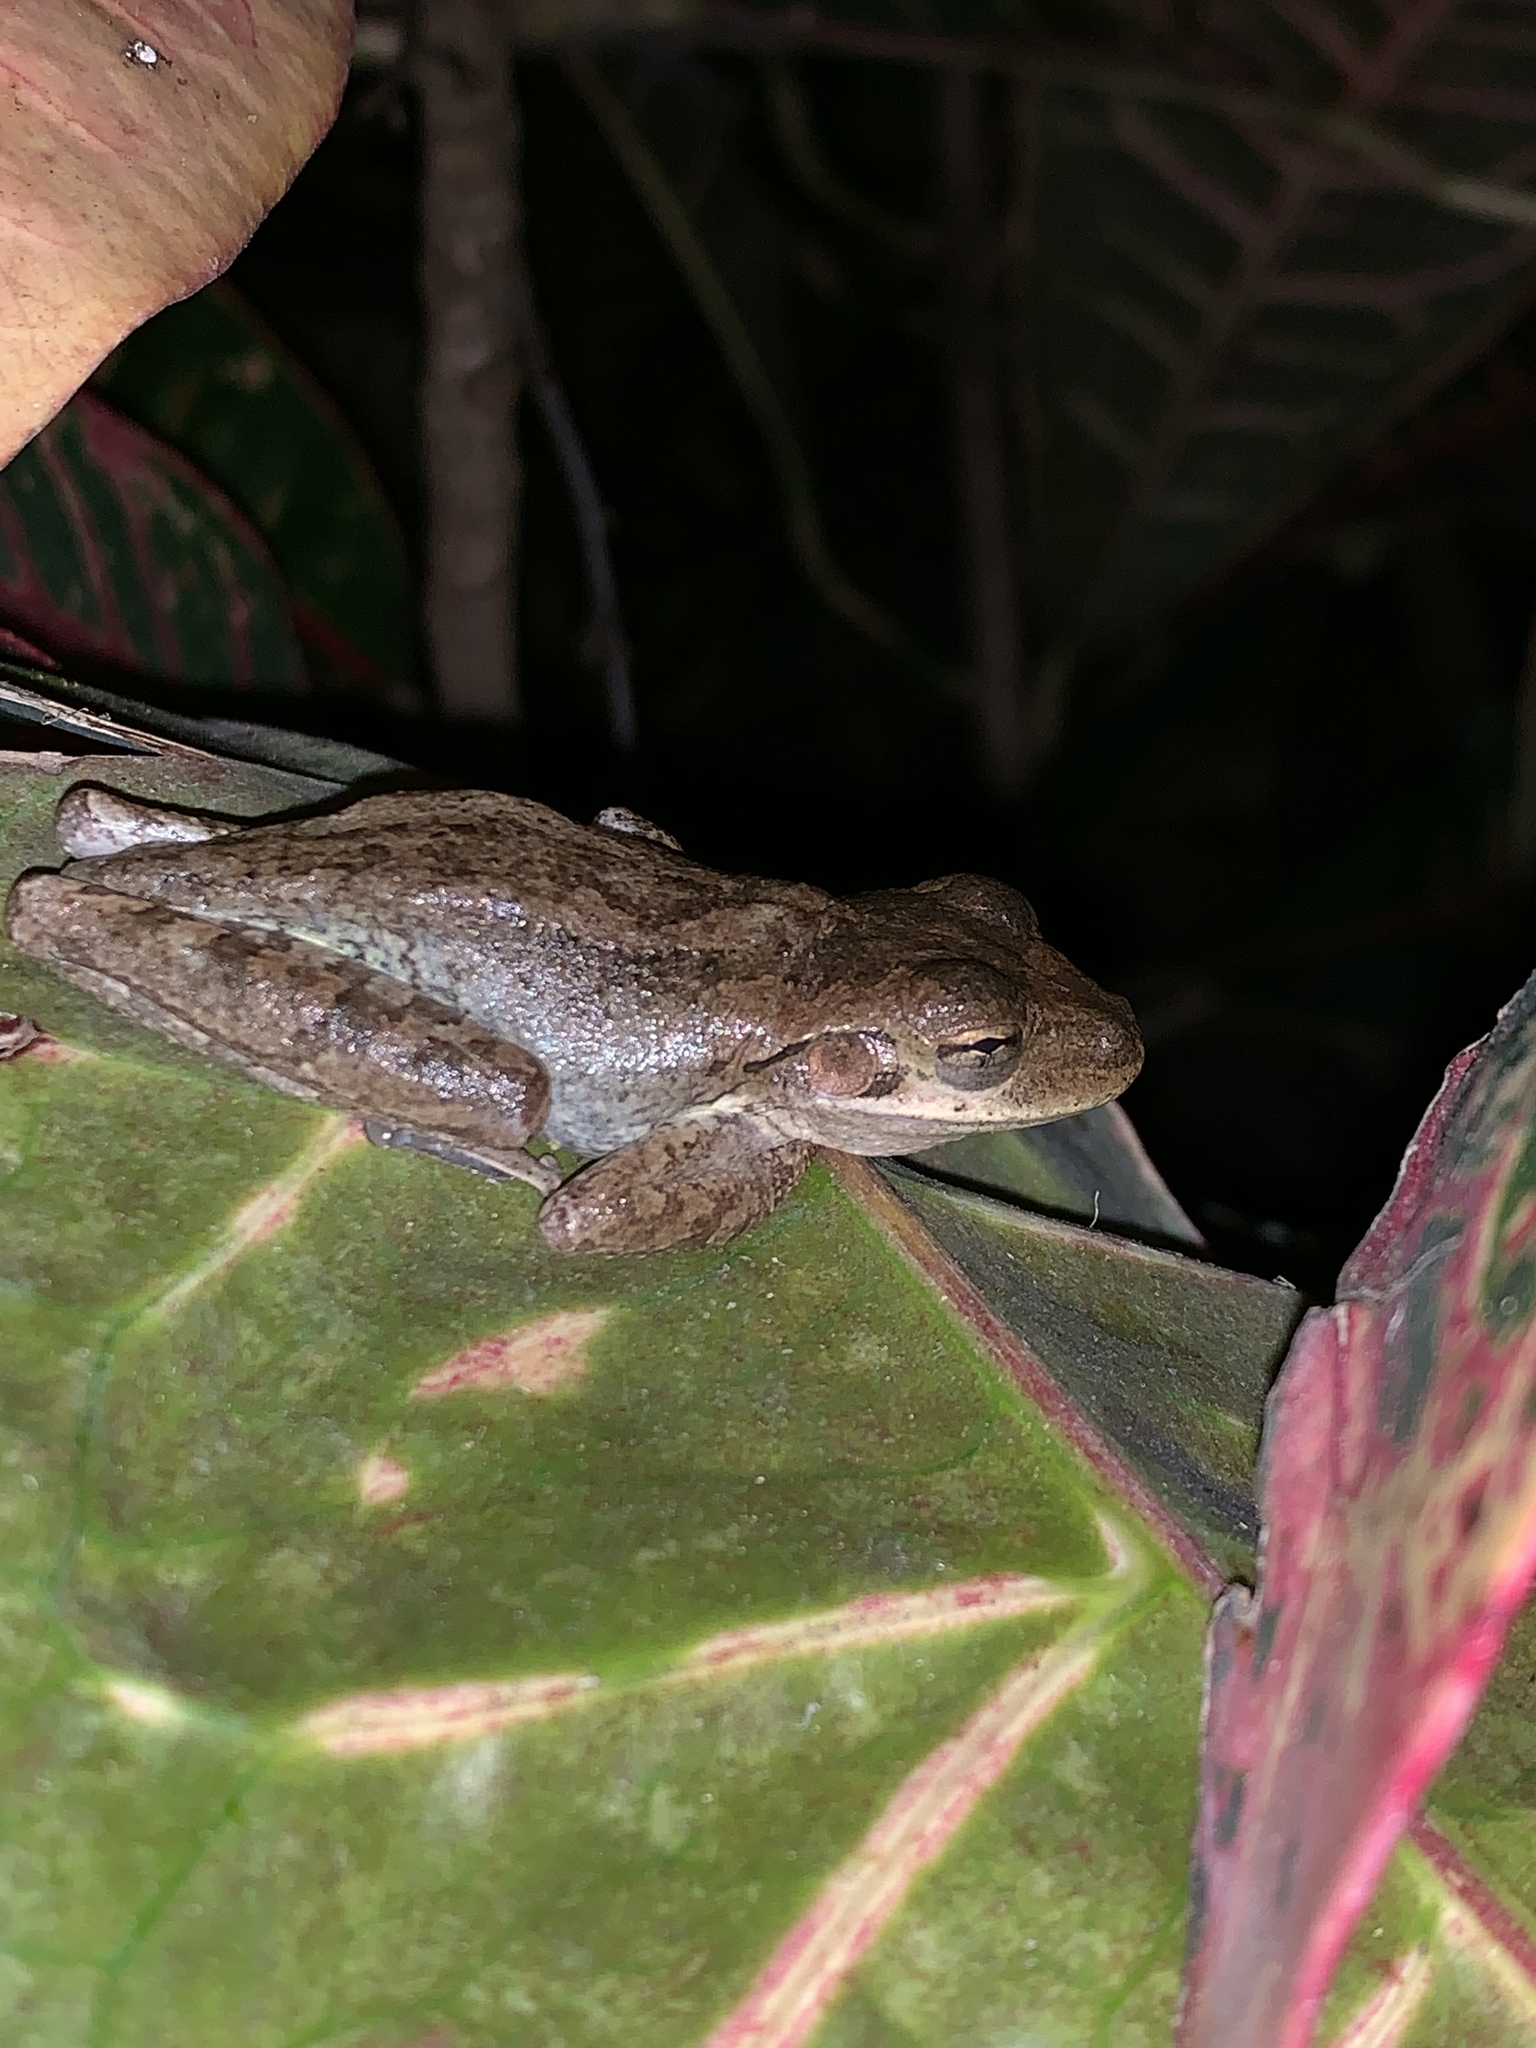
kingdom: Animalia
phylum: Chordata
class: Amphibia
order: Anura
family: Hylidae
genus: Osteopilus
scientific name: Osteopilus septentrionalis
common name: Cuban treefrog
